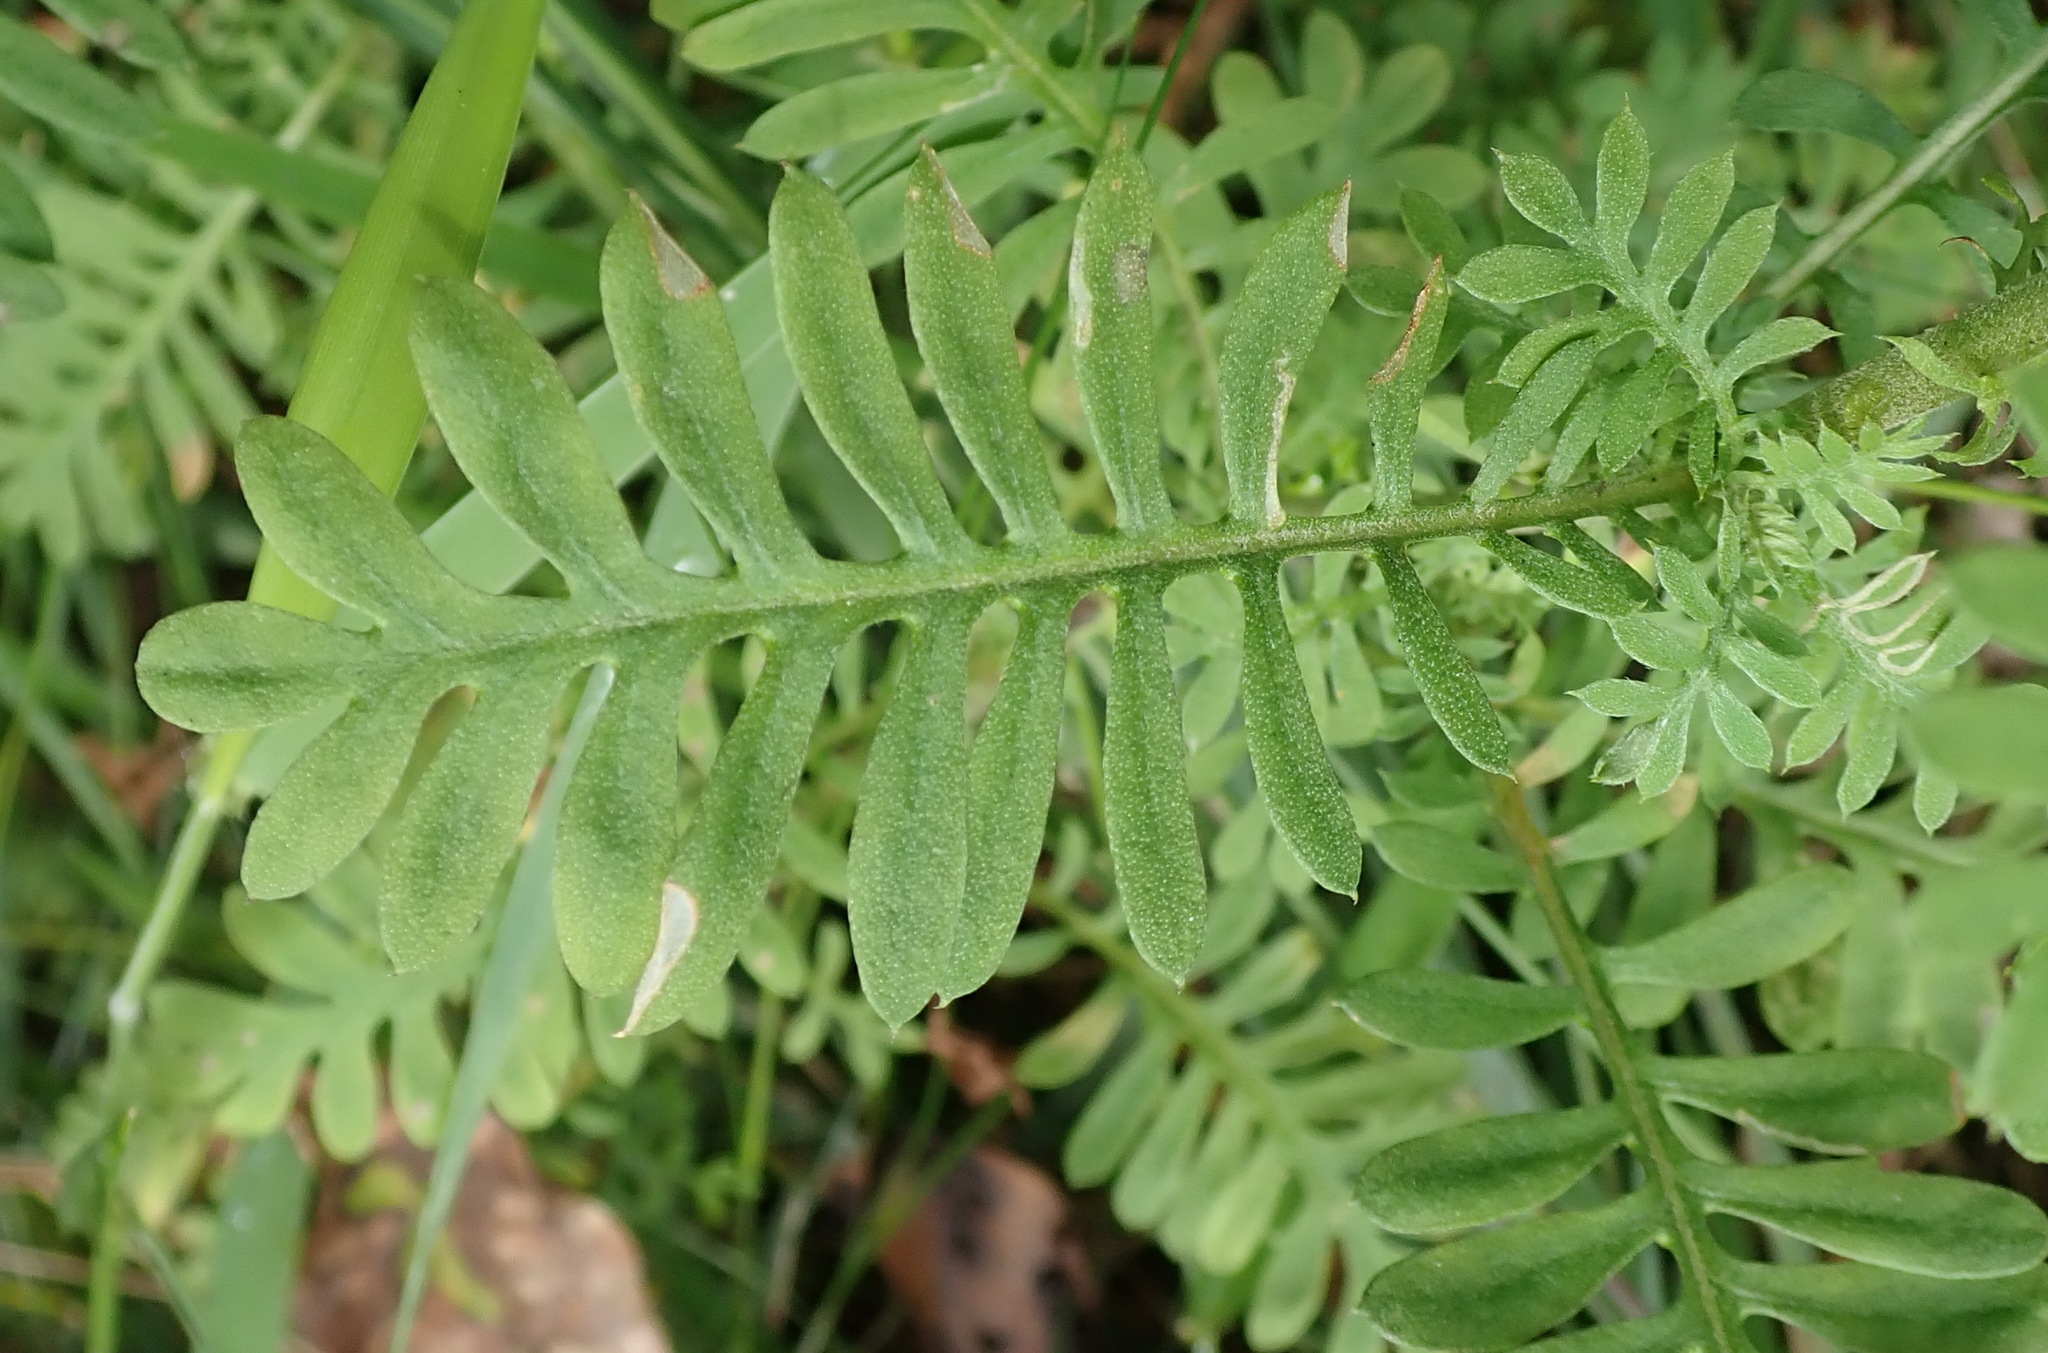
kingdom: Plantae
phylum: Tracheophyta
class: Magnoliopsida
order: Asterales
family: Asteraceae
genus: Hippia
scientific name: Hippia frutescens
